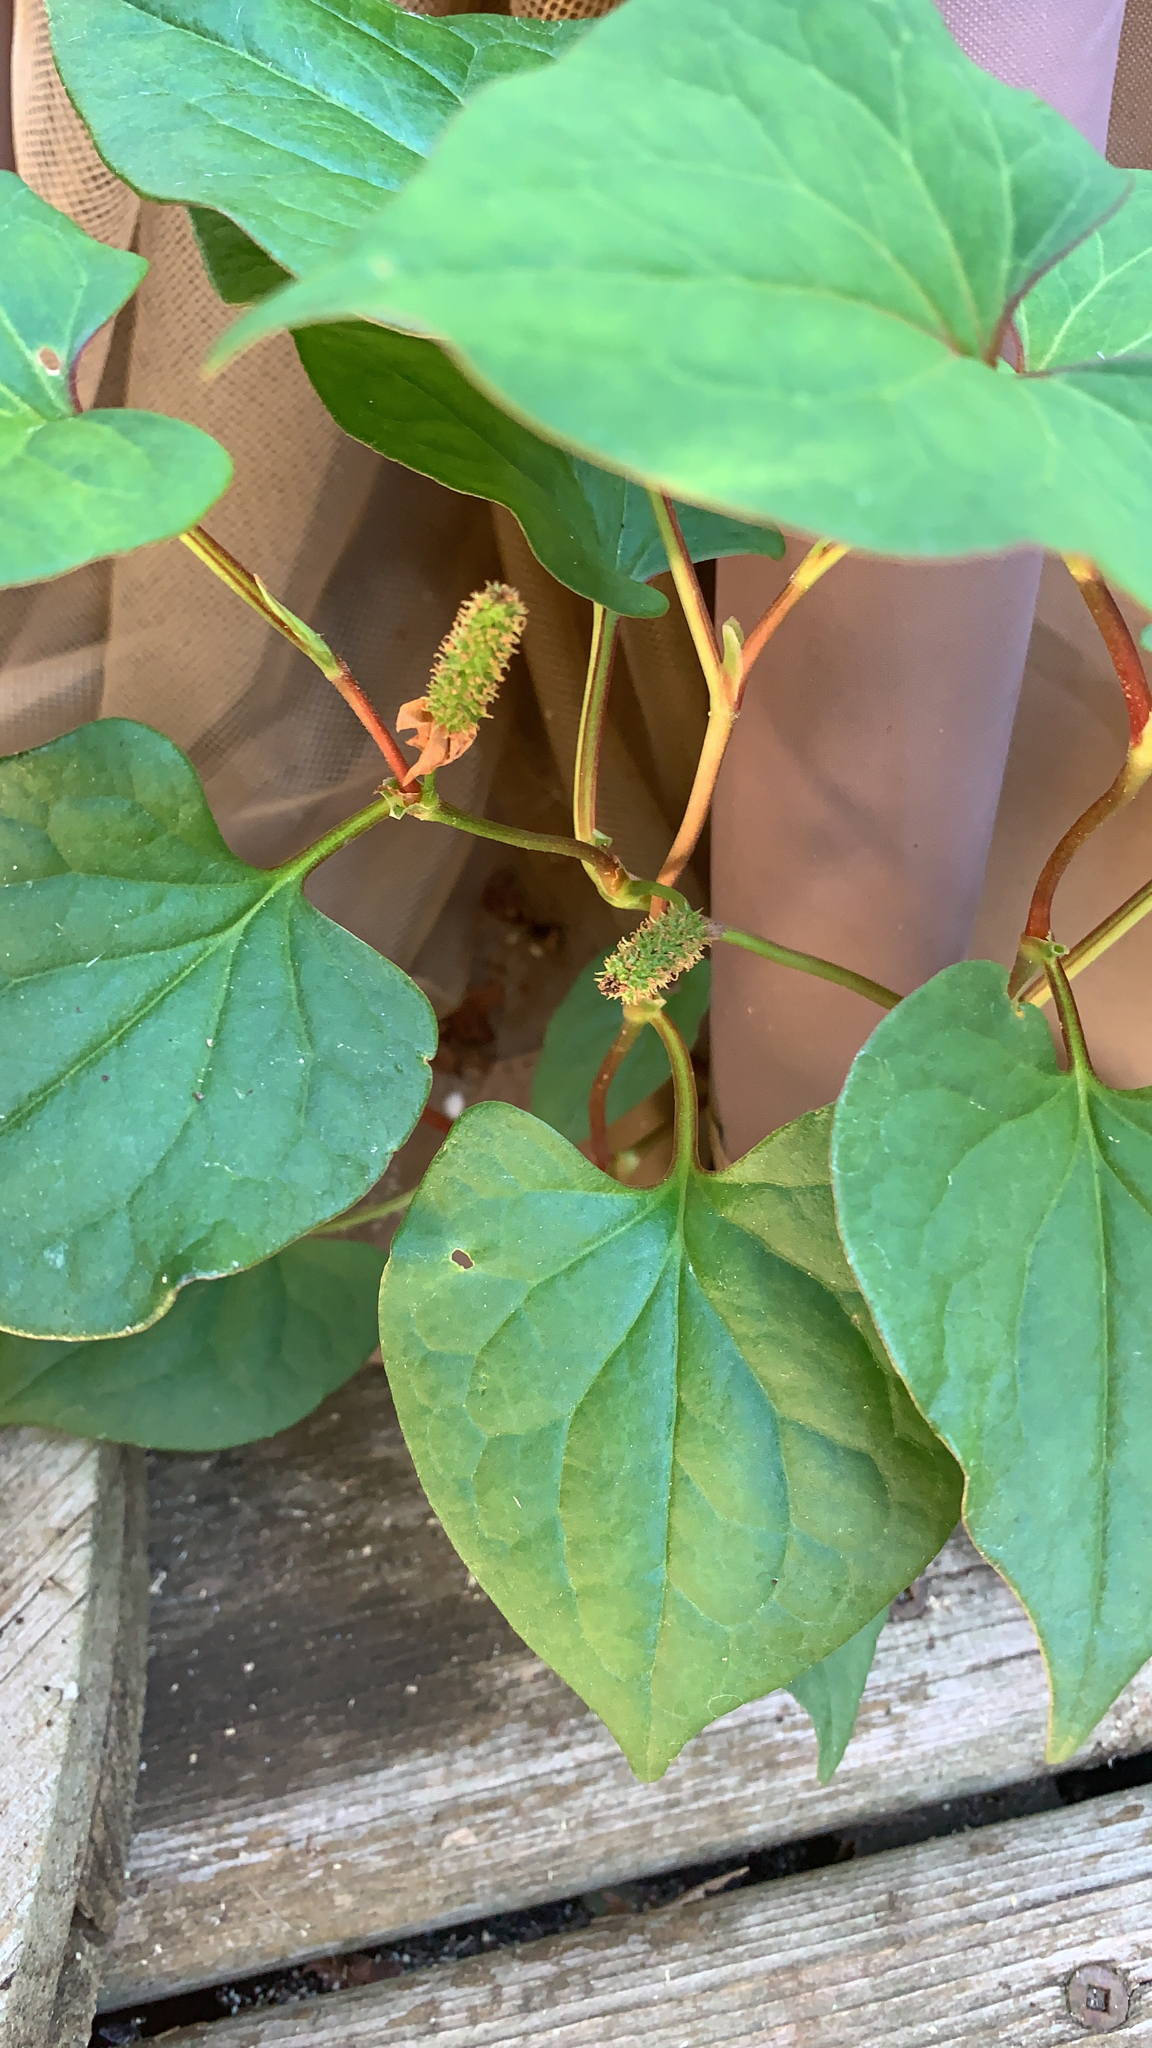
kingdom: Plantae
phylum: Tracheophyta
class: Magnoliopsida
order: Piperales
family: Saururaceae
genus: Houttuynia
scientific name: Houttuynia cordata
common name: Chameleon
